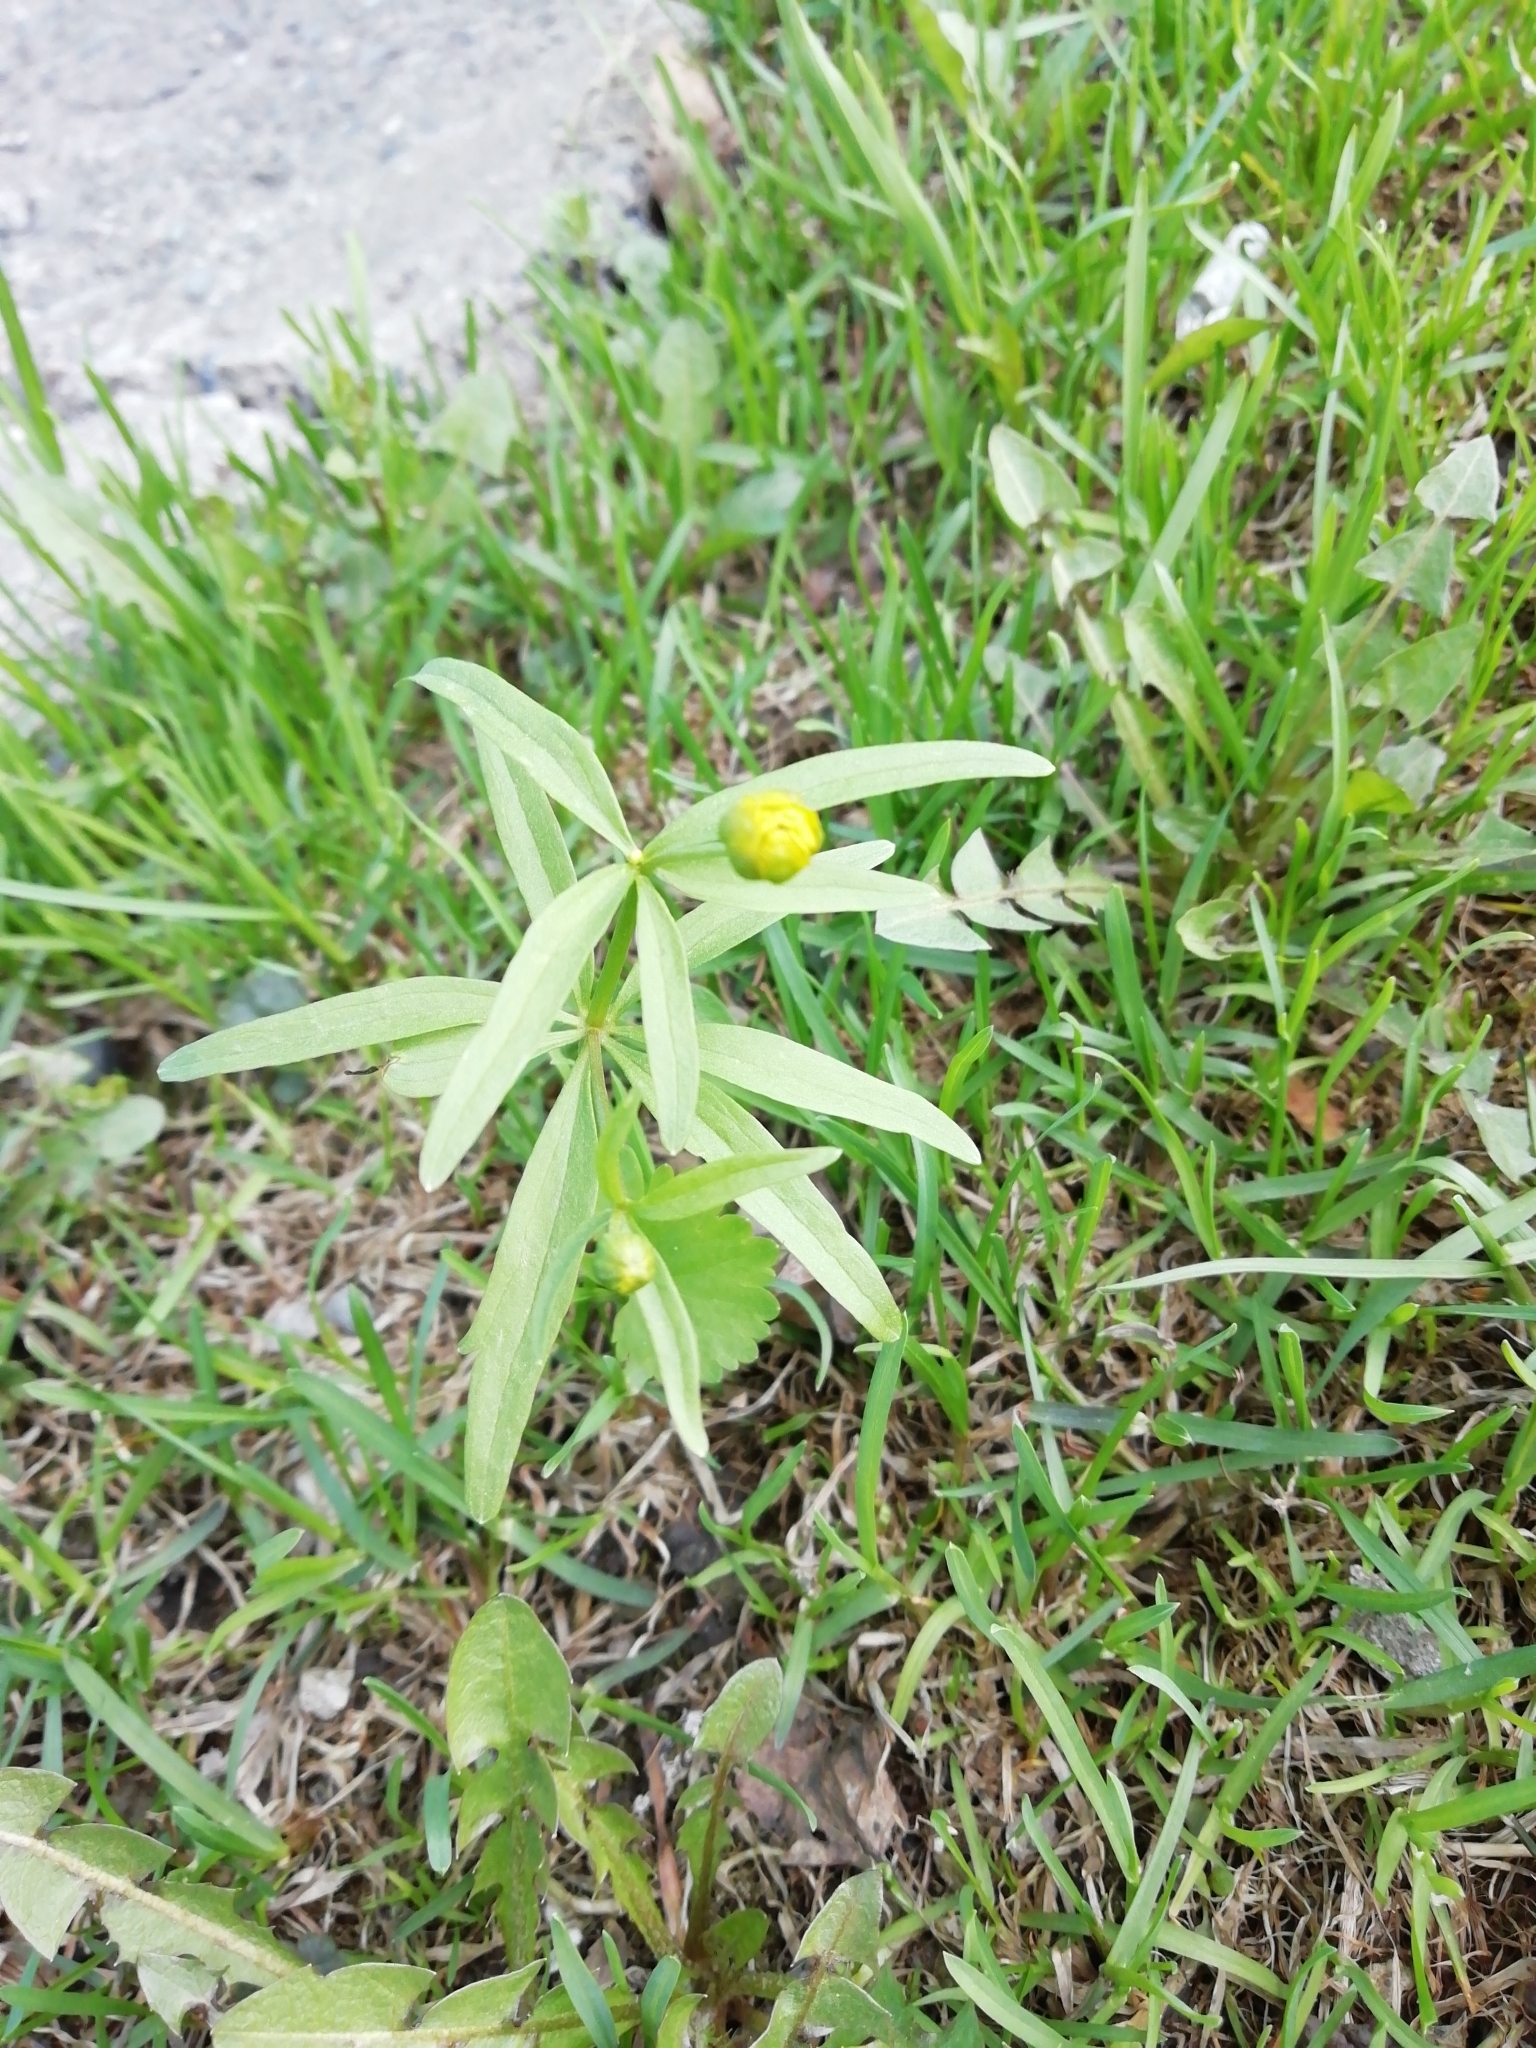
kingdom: Plantae
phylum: Tracheophyta
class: Magnoliopsida
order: Ranunculales
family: Ranunculaceae
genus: Ranunculus
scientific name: Ranunculus monophyllus
